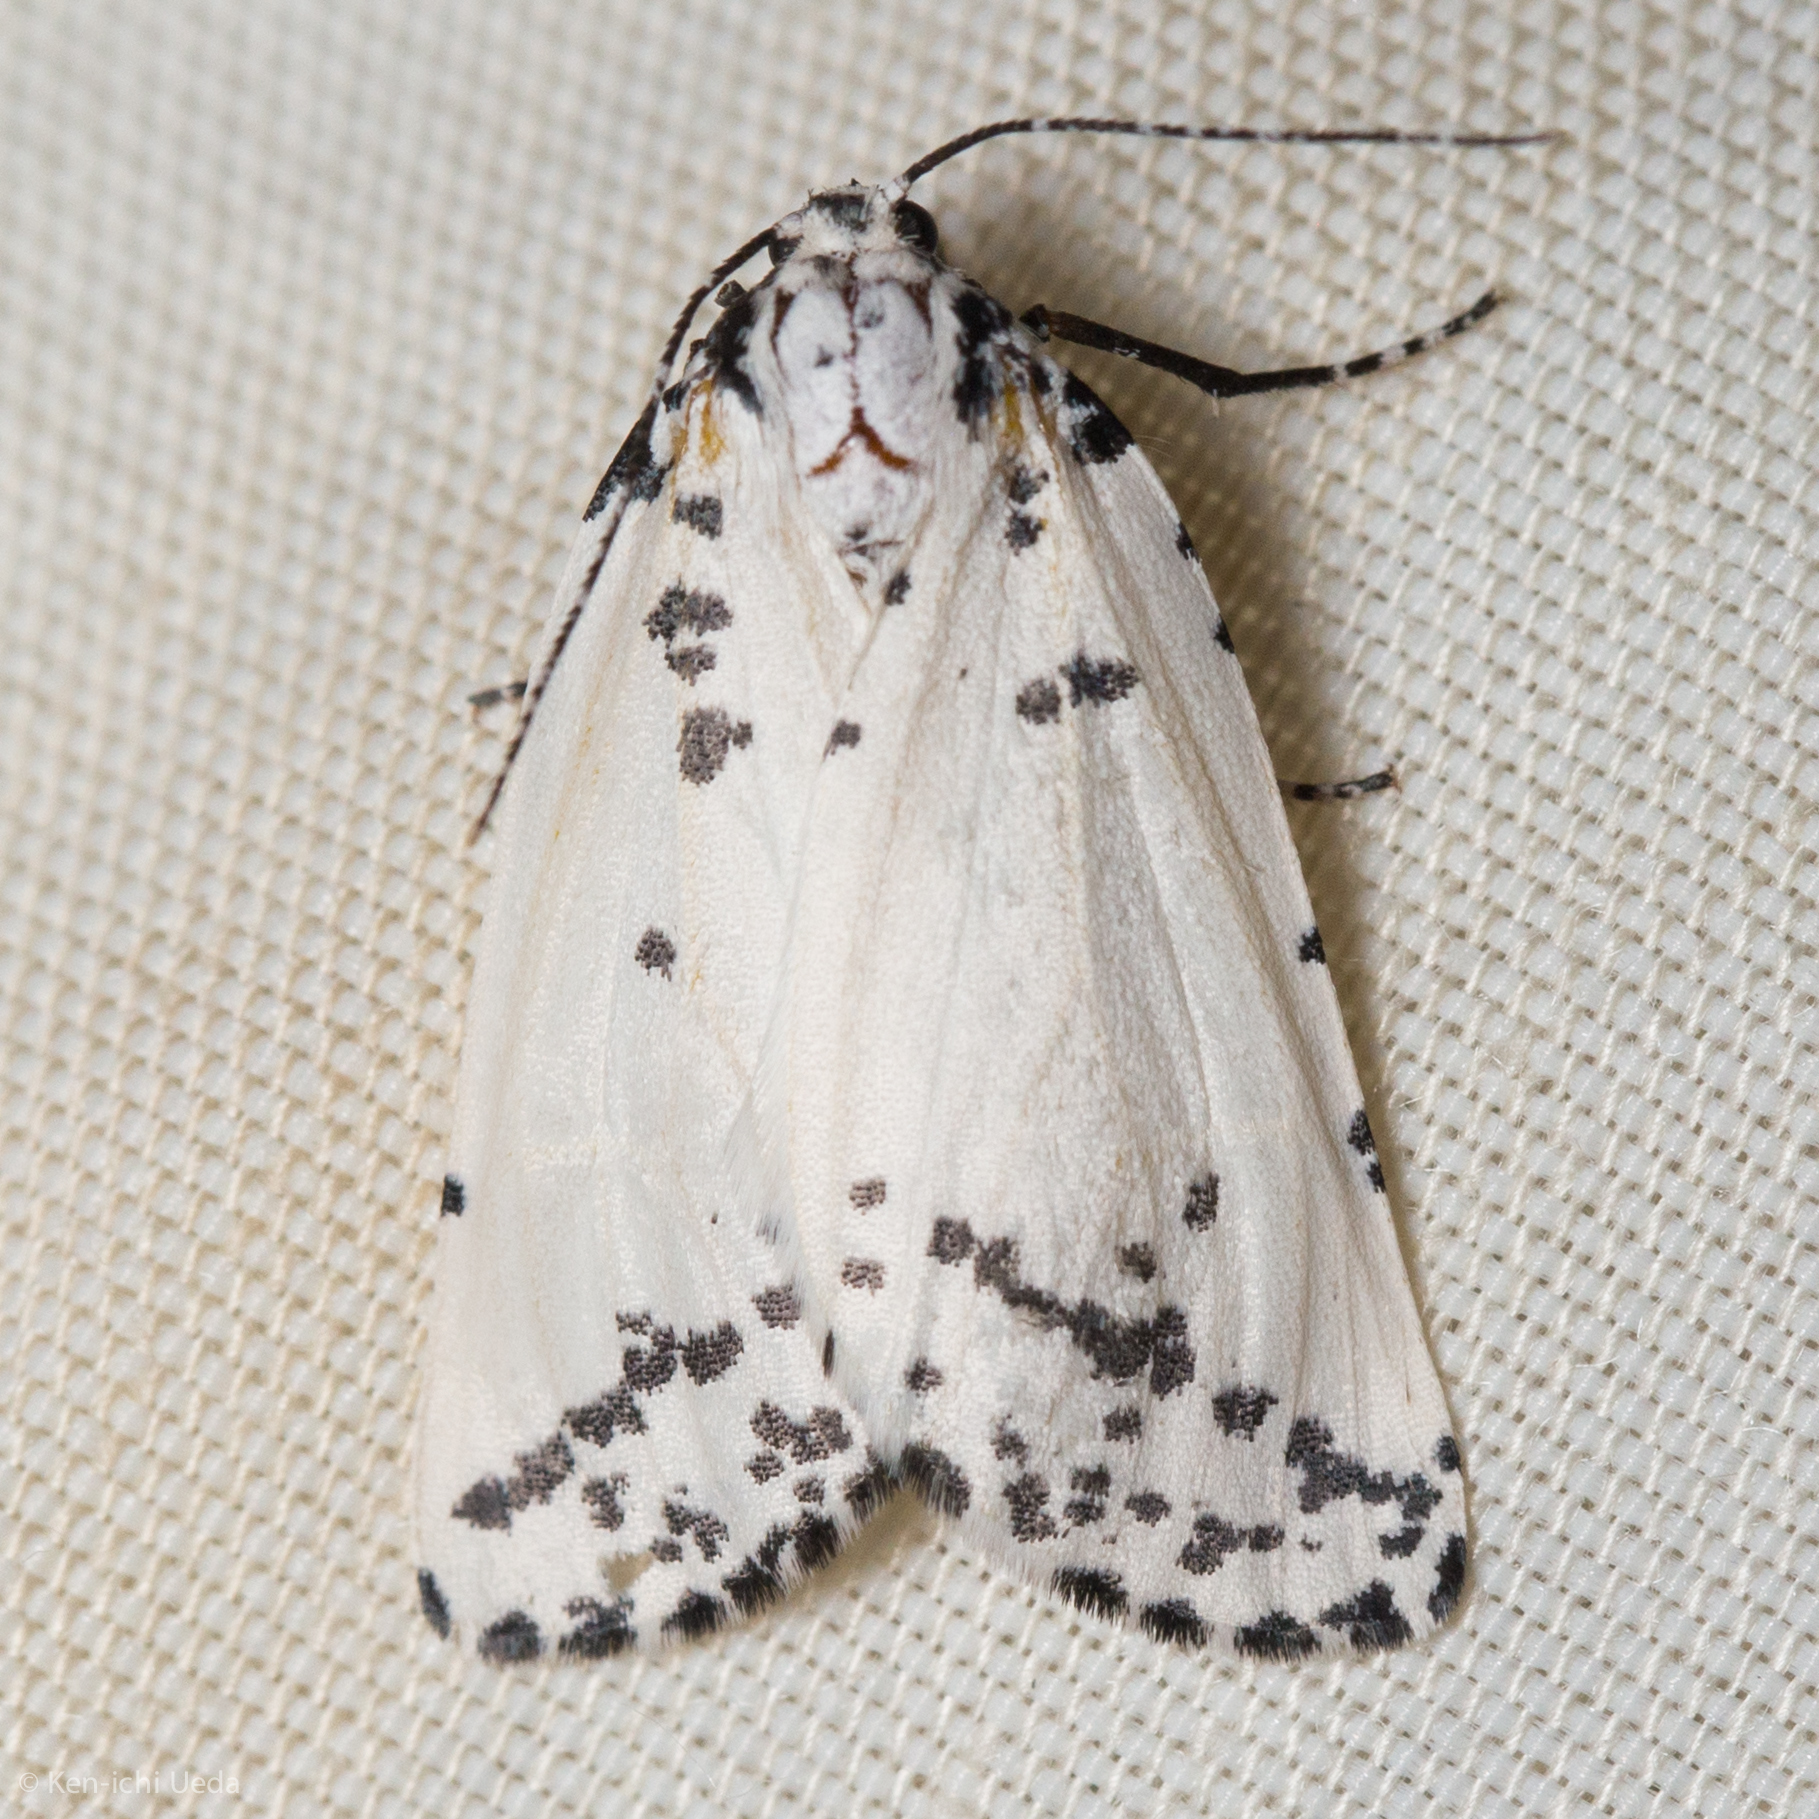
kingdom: Animalia
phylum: Arthropoda
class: Insecta
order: Lepidoptera
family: Geometridae
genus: Eucaterva
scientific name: Eucaterva variaria
